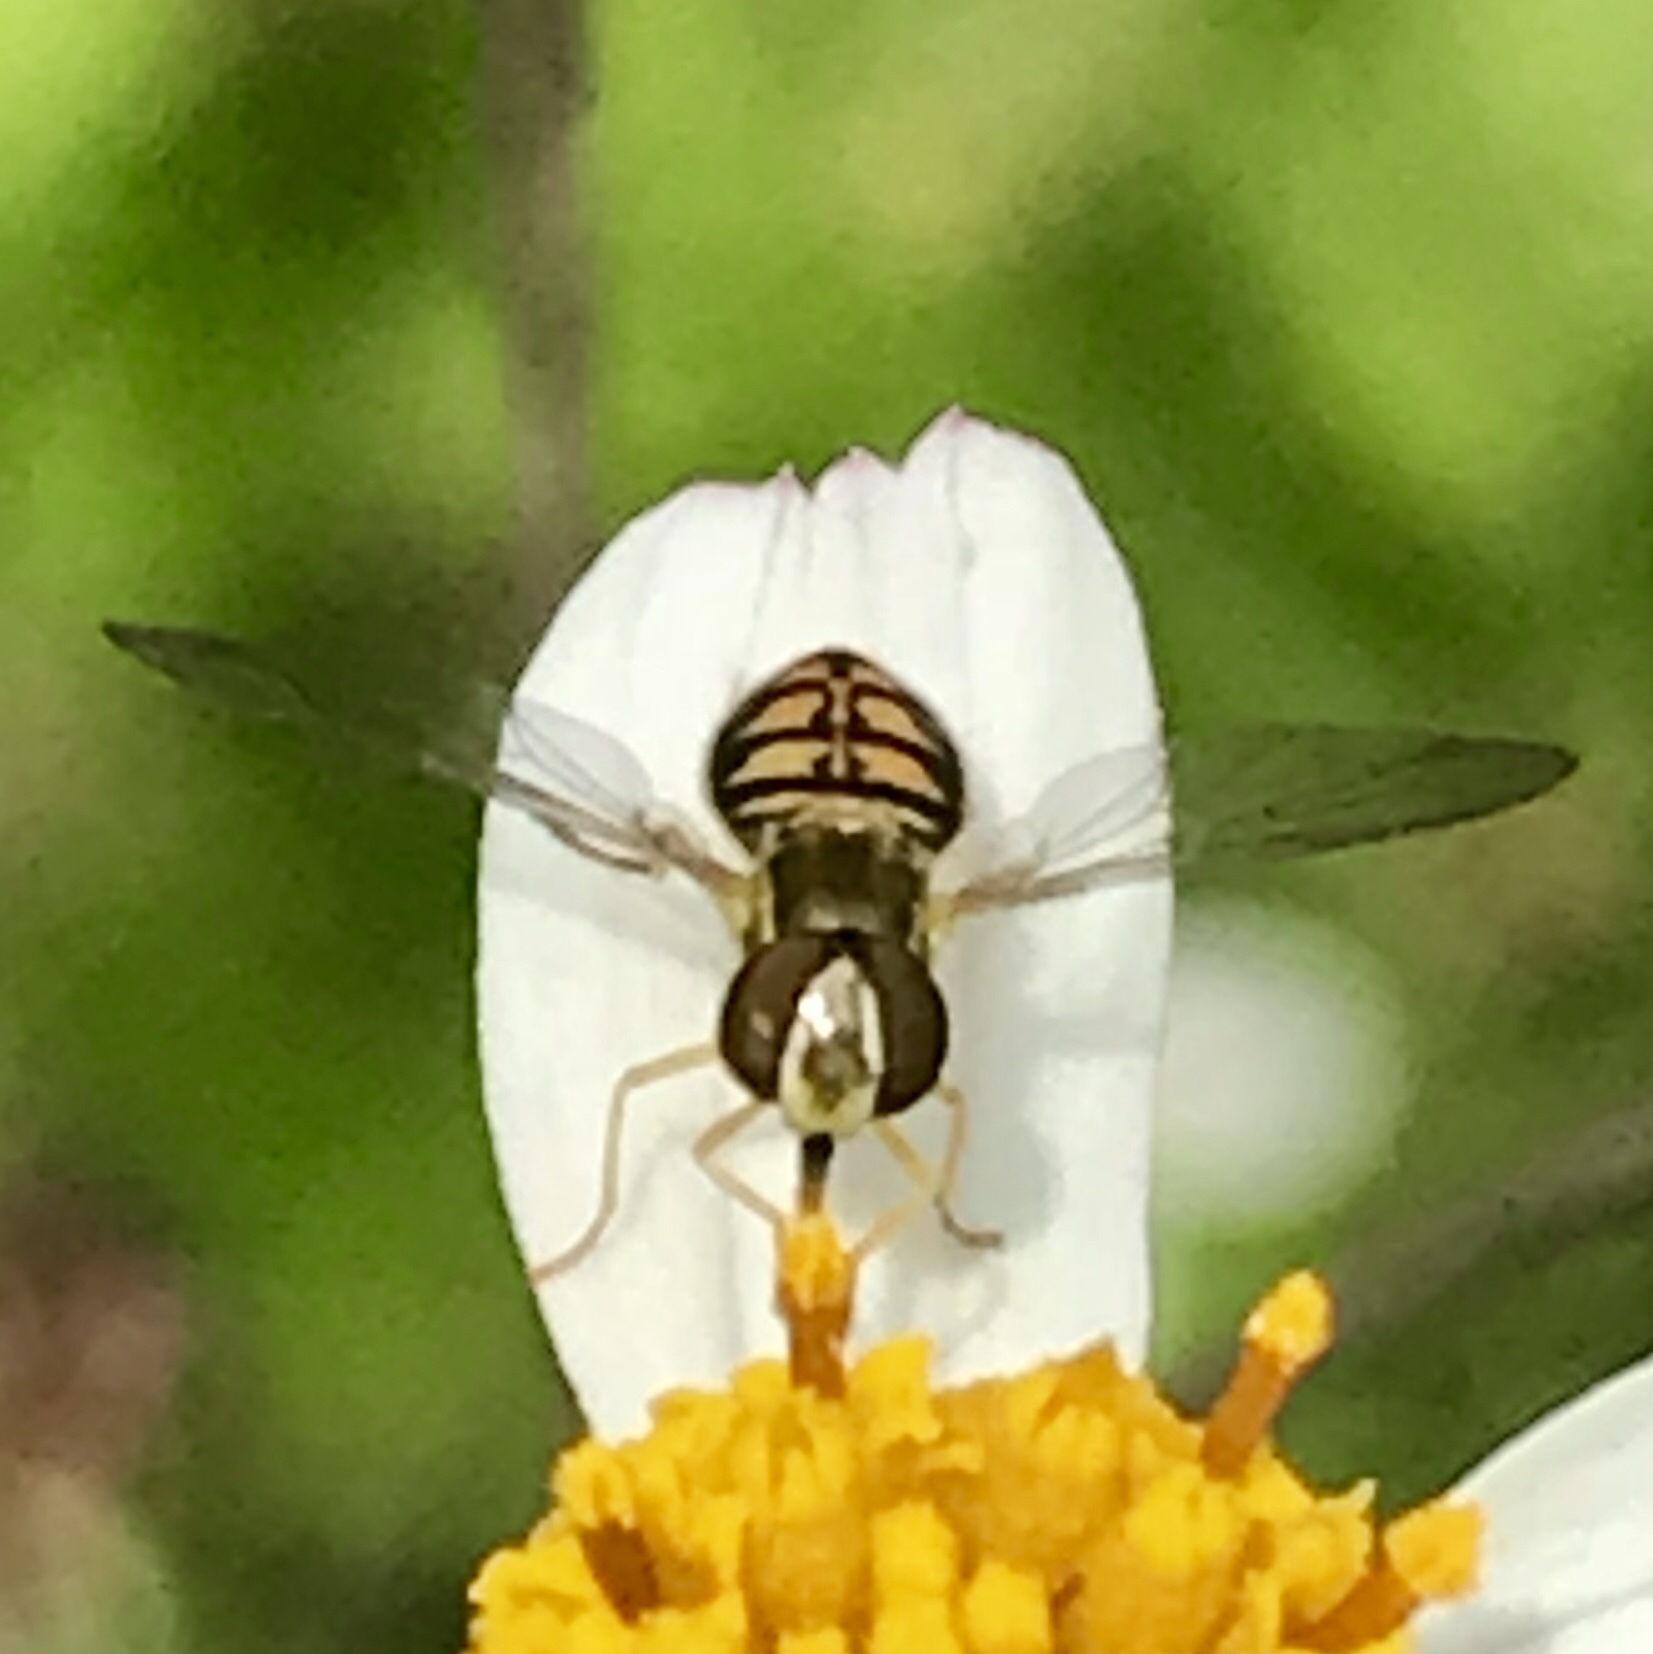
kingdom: Animalia
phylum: Arthropoda
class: Insecta
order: Diptera
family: Syrphidae
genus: Toxomerus
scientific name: Toxomerus marginatus
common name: Syrphid fly
